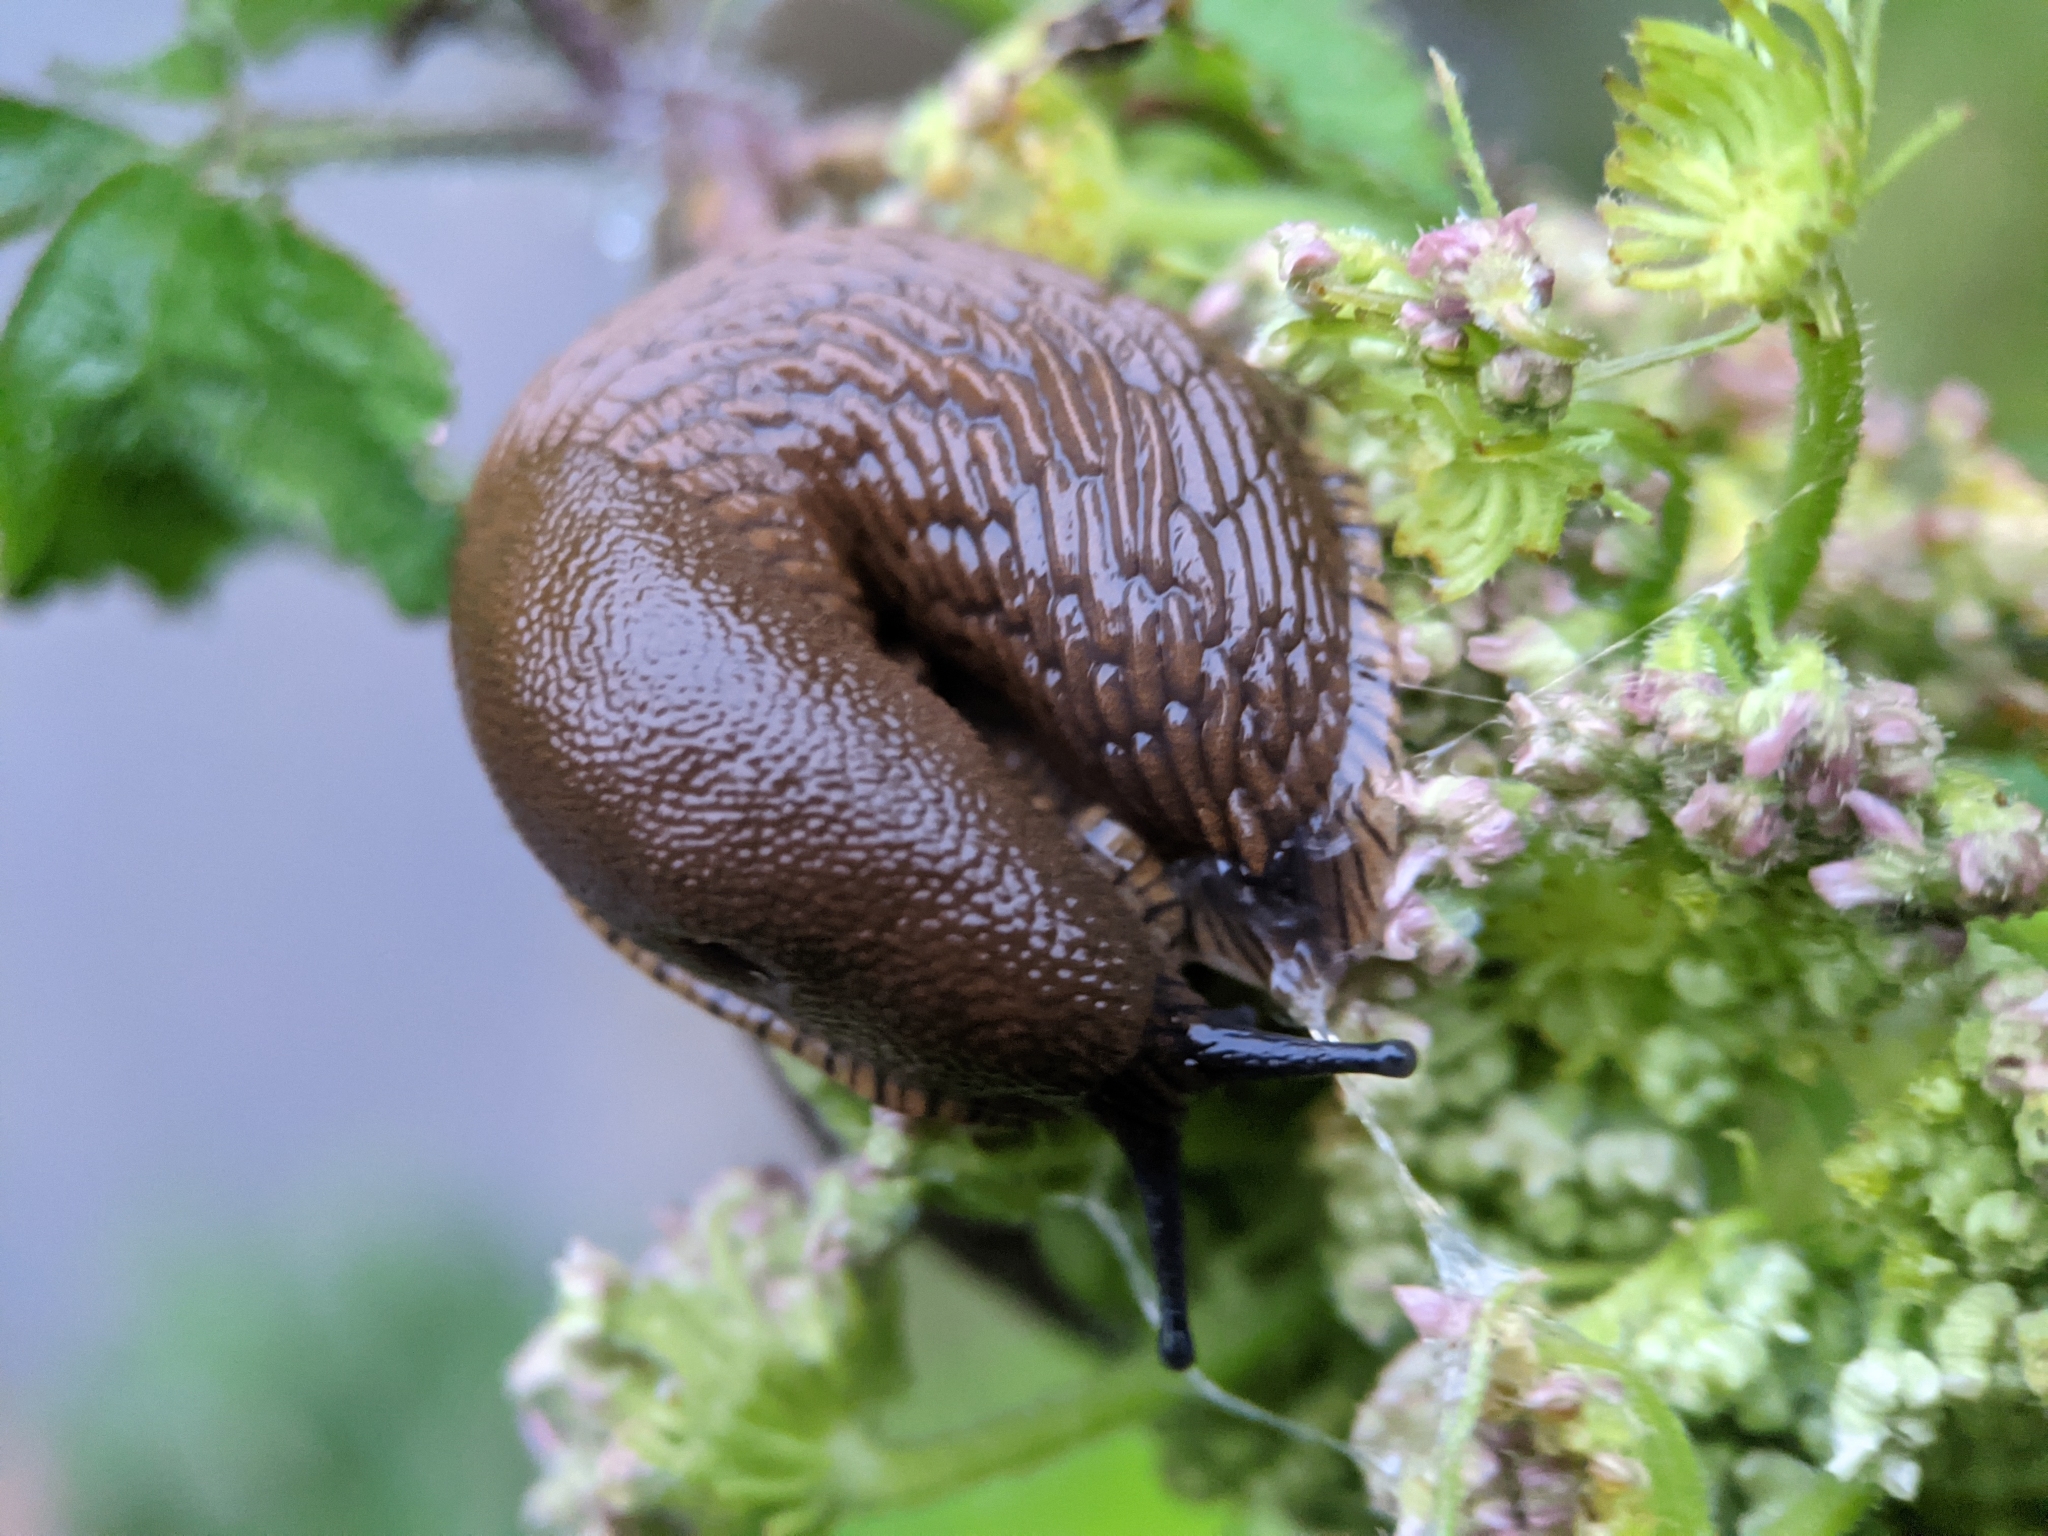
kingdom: Animalia
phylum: Mollusca
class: Gastropoda
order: Stylommatophora
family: Arionidae
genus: Arion
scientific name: Arion rufus
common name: Chocolate arion
